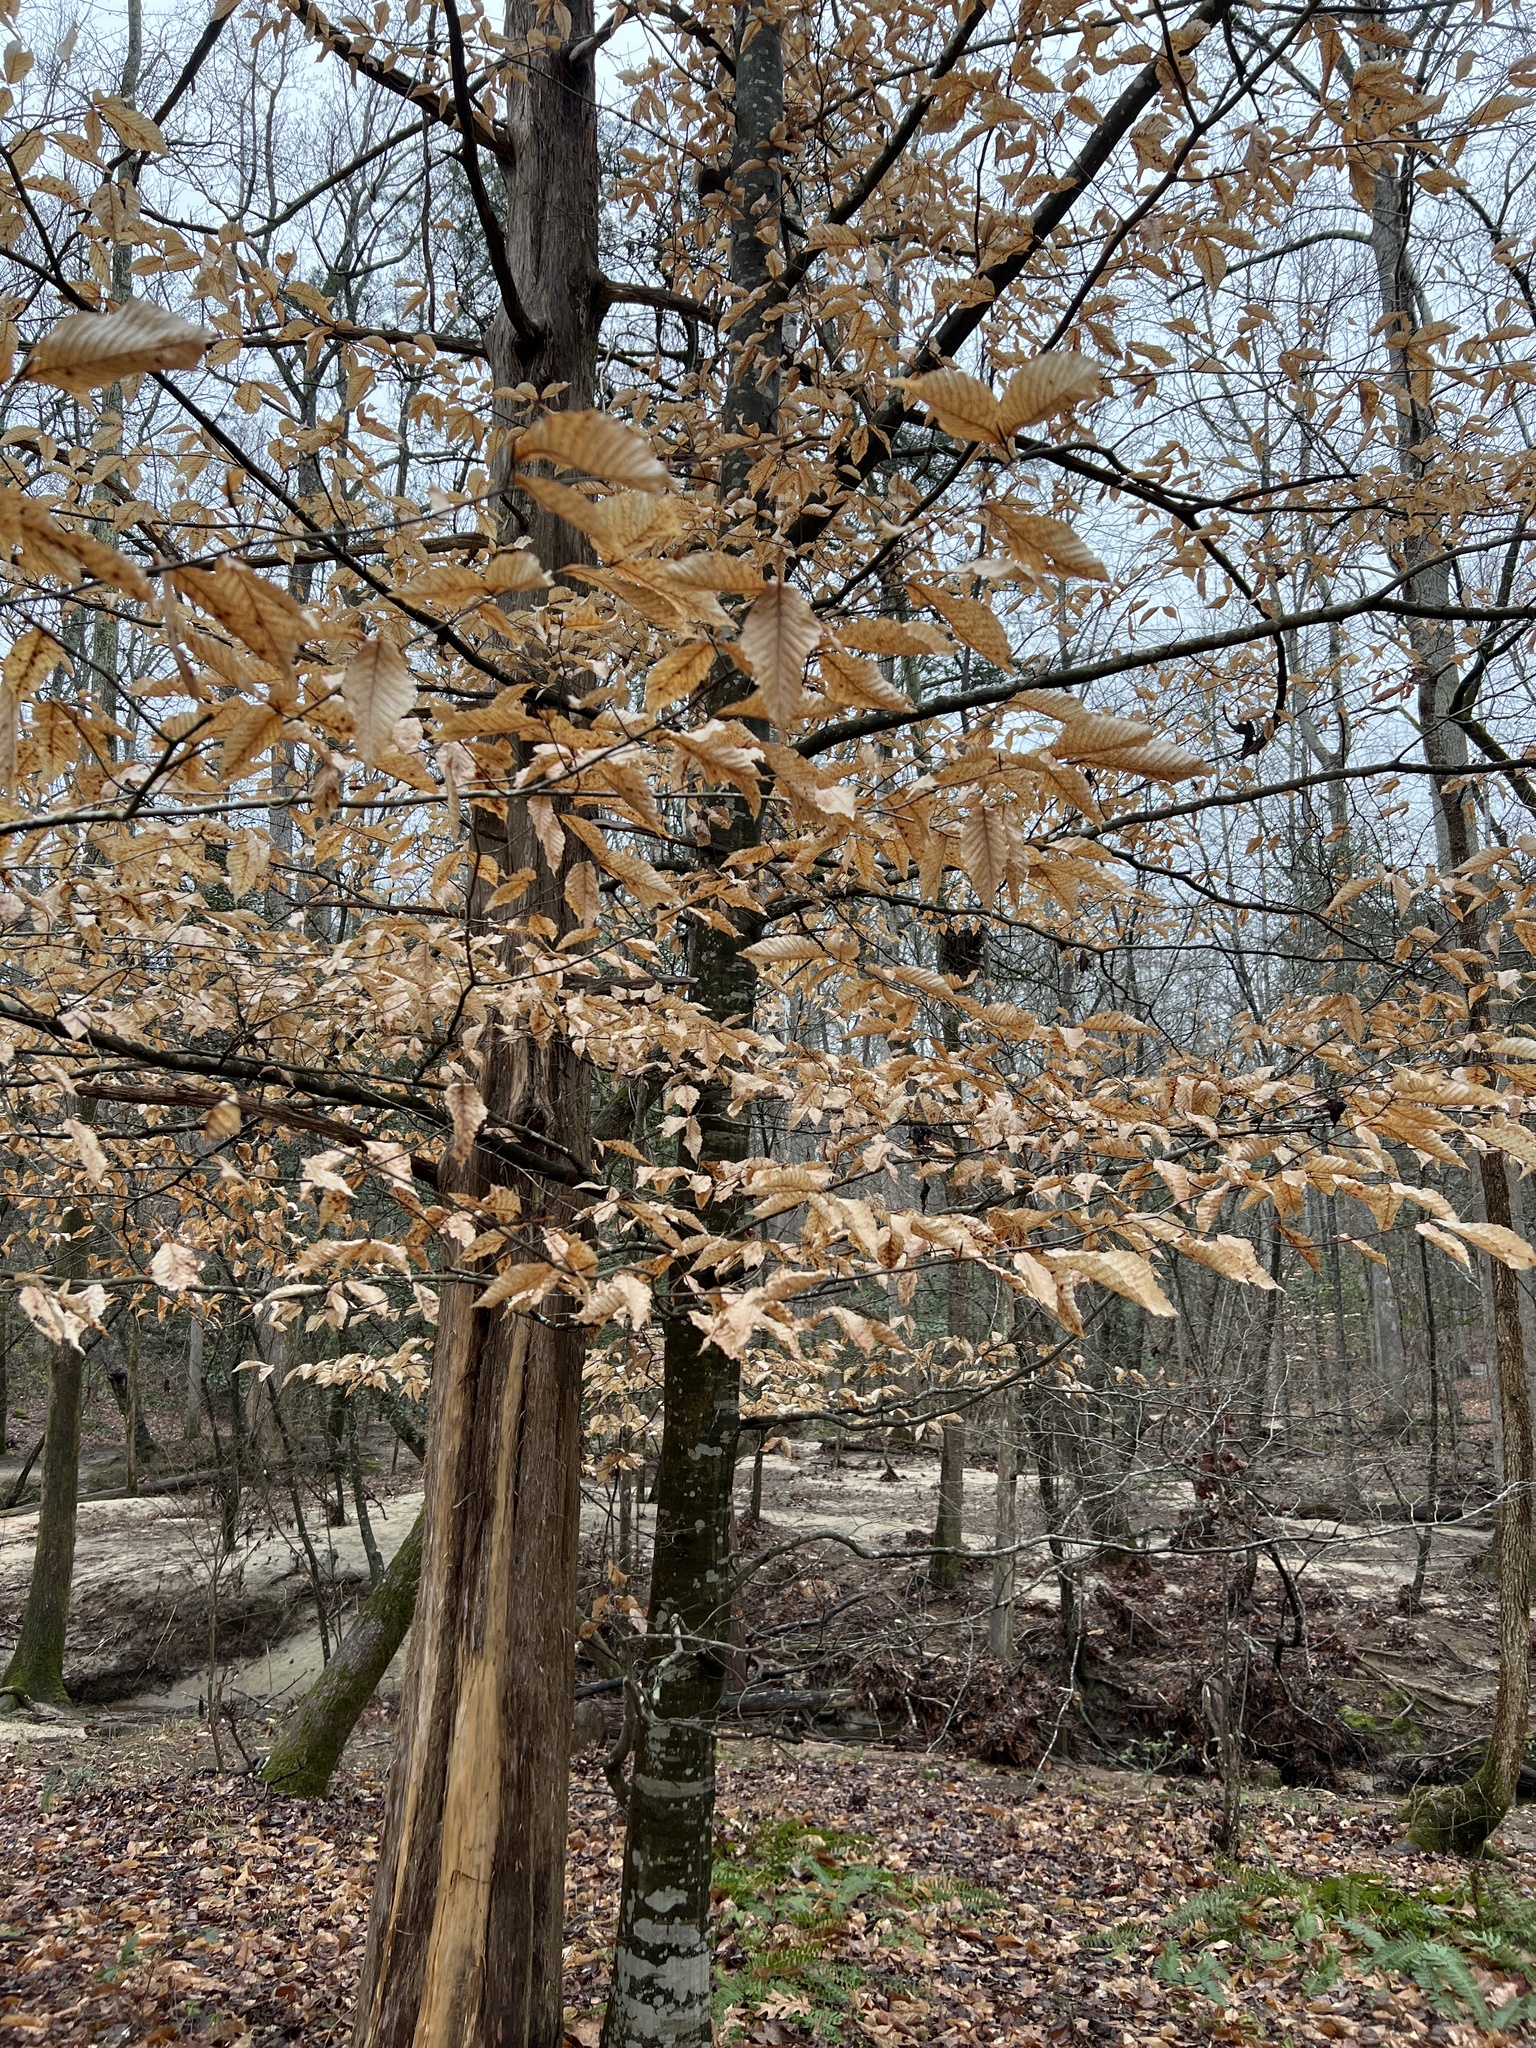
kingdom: Plantae
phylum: Tracheophyta
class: Magnoliopsida
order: Fagales
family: Fagaceae
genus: Fagus
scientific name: Fagus grandifolia
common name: American beech
